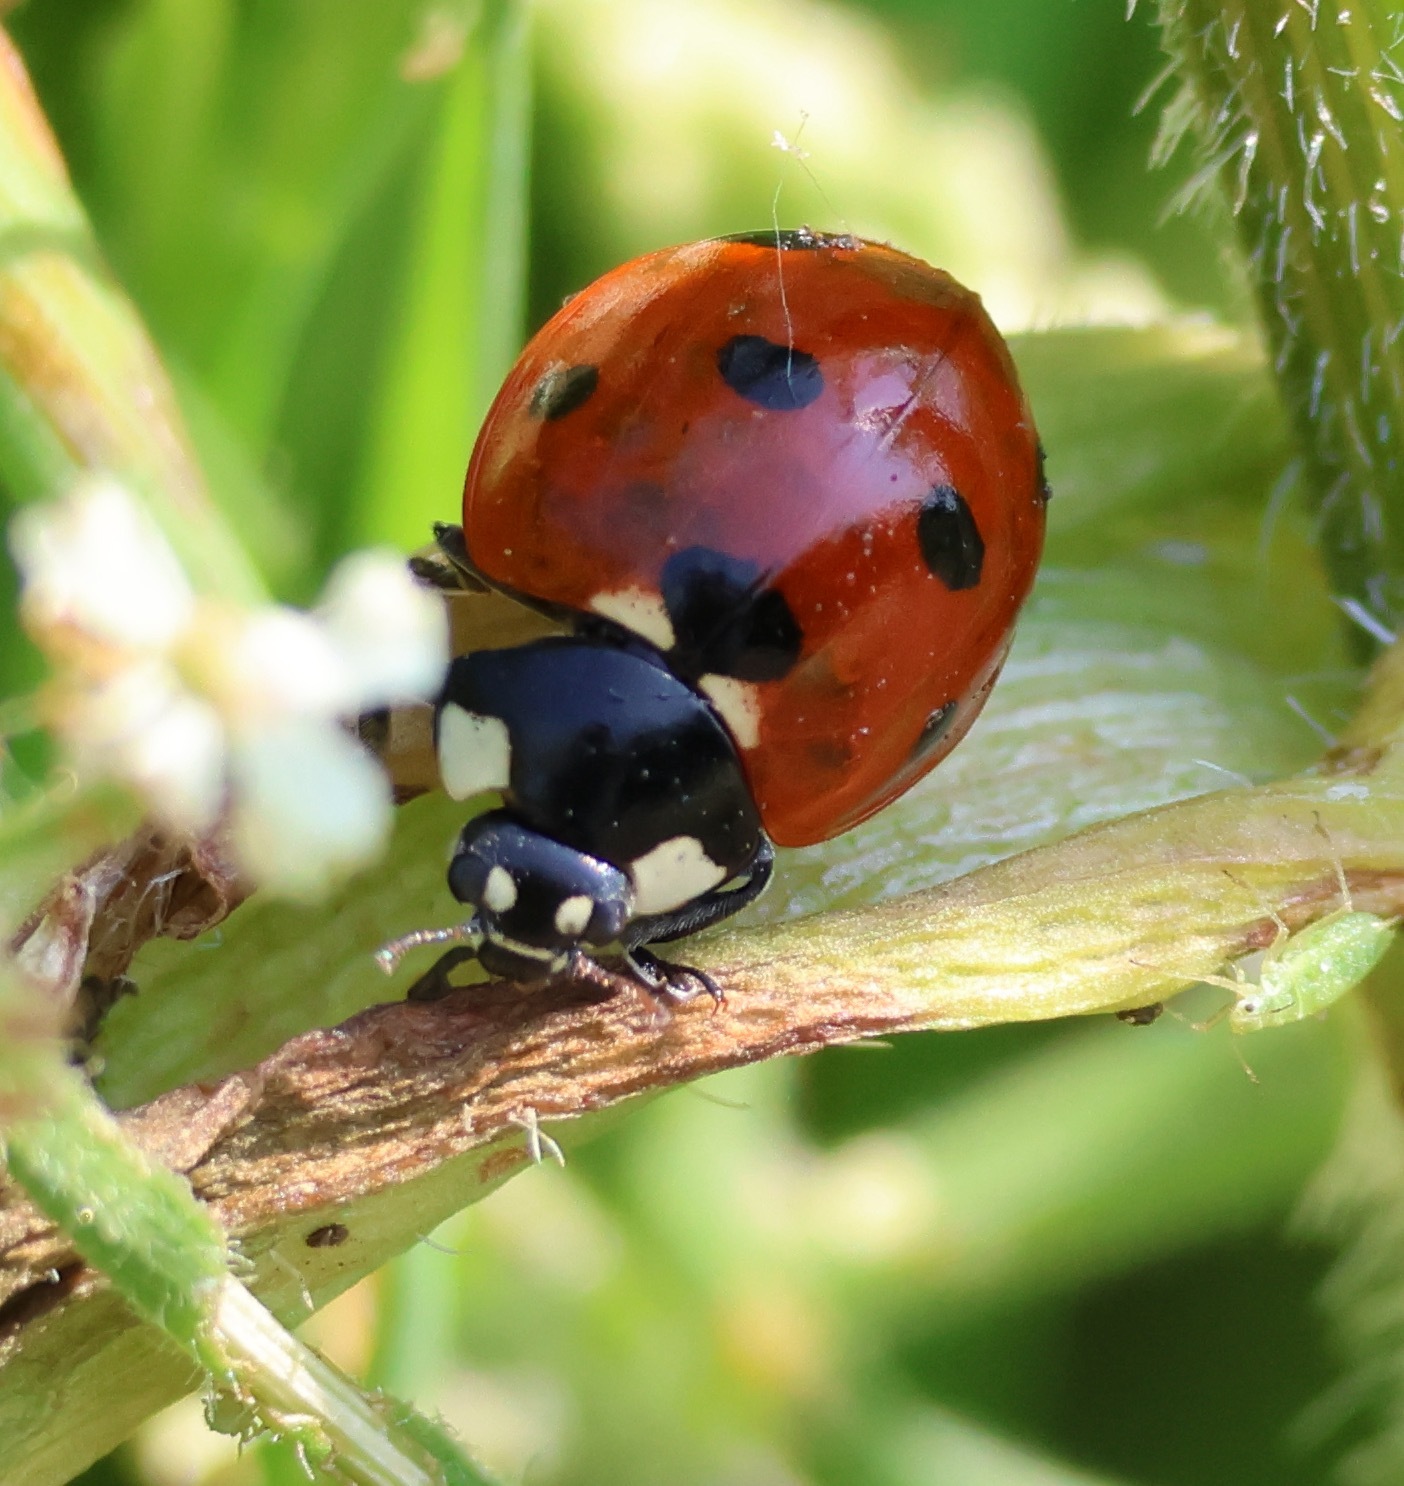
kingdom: Animalia
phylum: Arthropoda
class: Insecta
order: Coleoptera
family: Coccinellidae
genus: Coccinella
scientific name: Coccinella septempunctata
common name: Sevenspotted lady beetle
